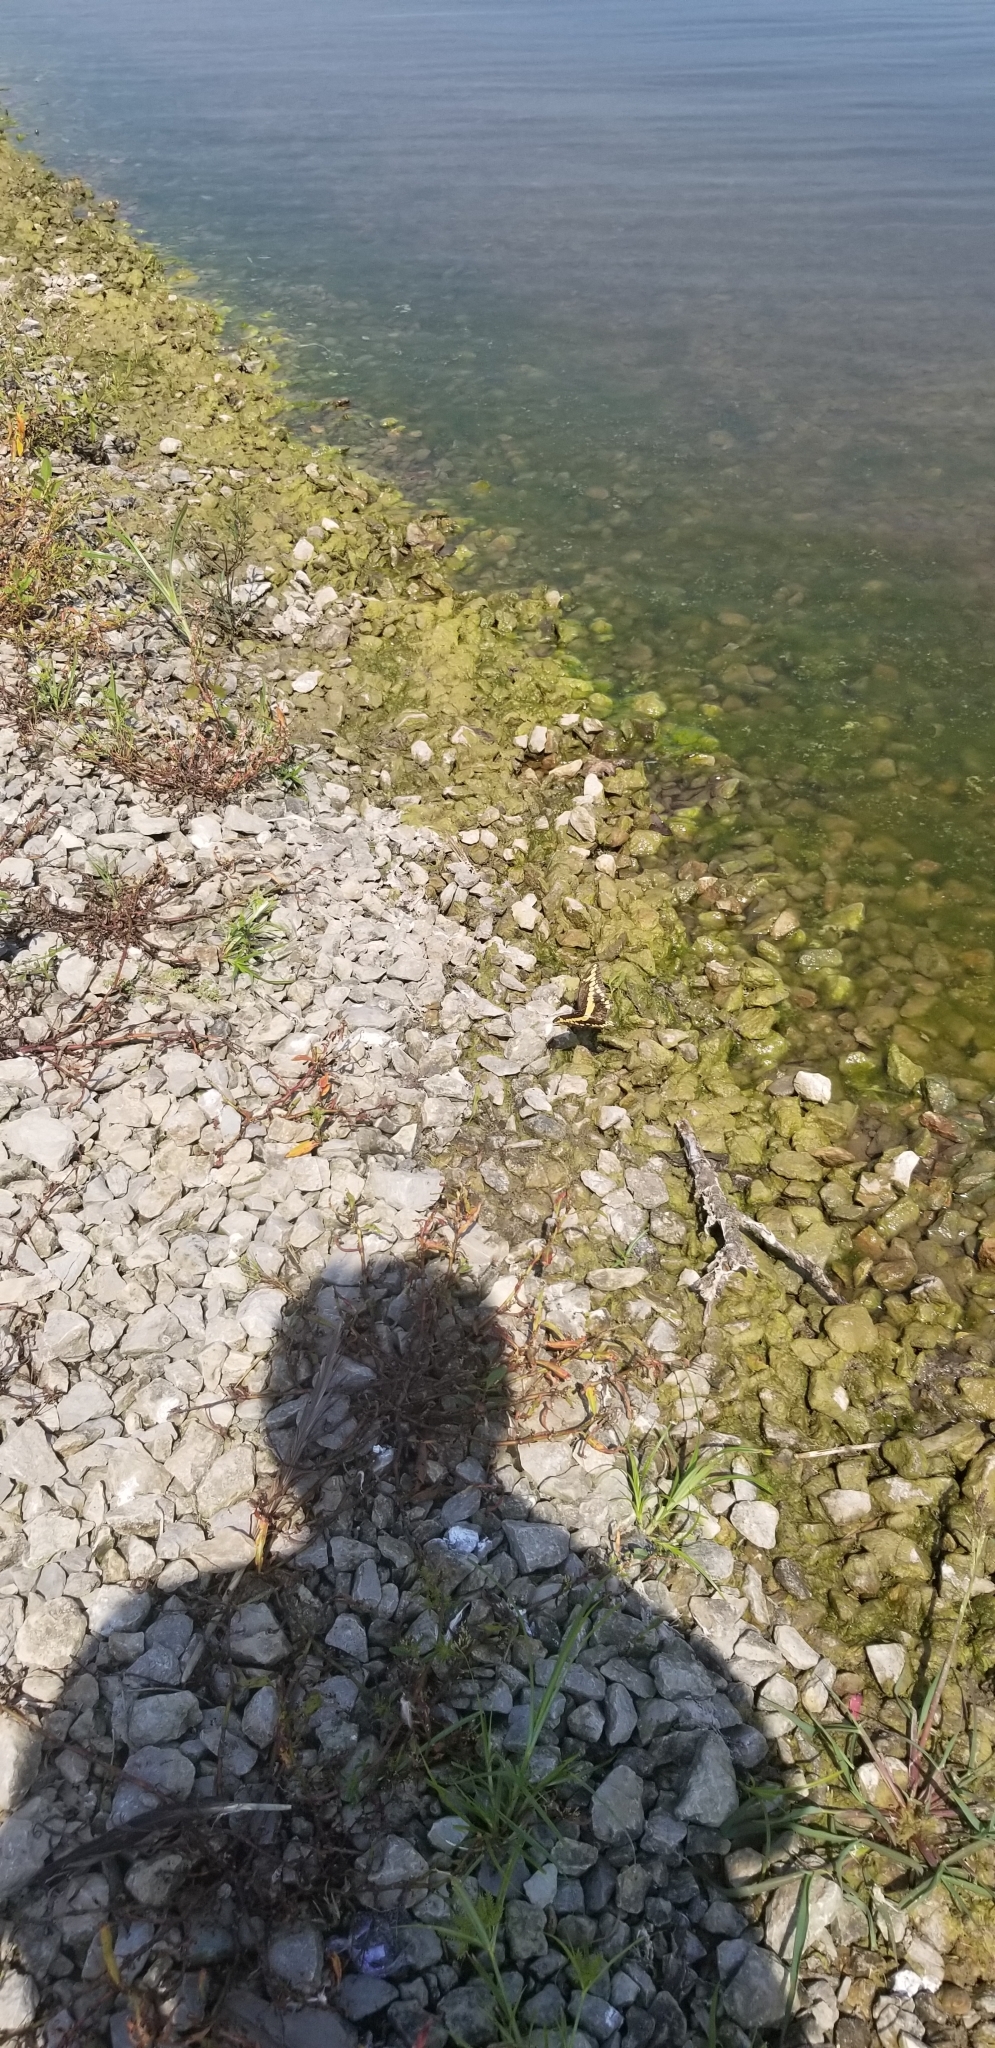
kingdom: Animalia
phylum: Arthropoda
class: Insecta
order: Lepidoptera
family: Papilionidae
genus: Papilio
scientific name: Papilio cresphontes
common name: Giant swallowtail
